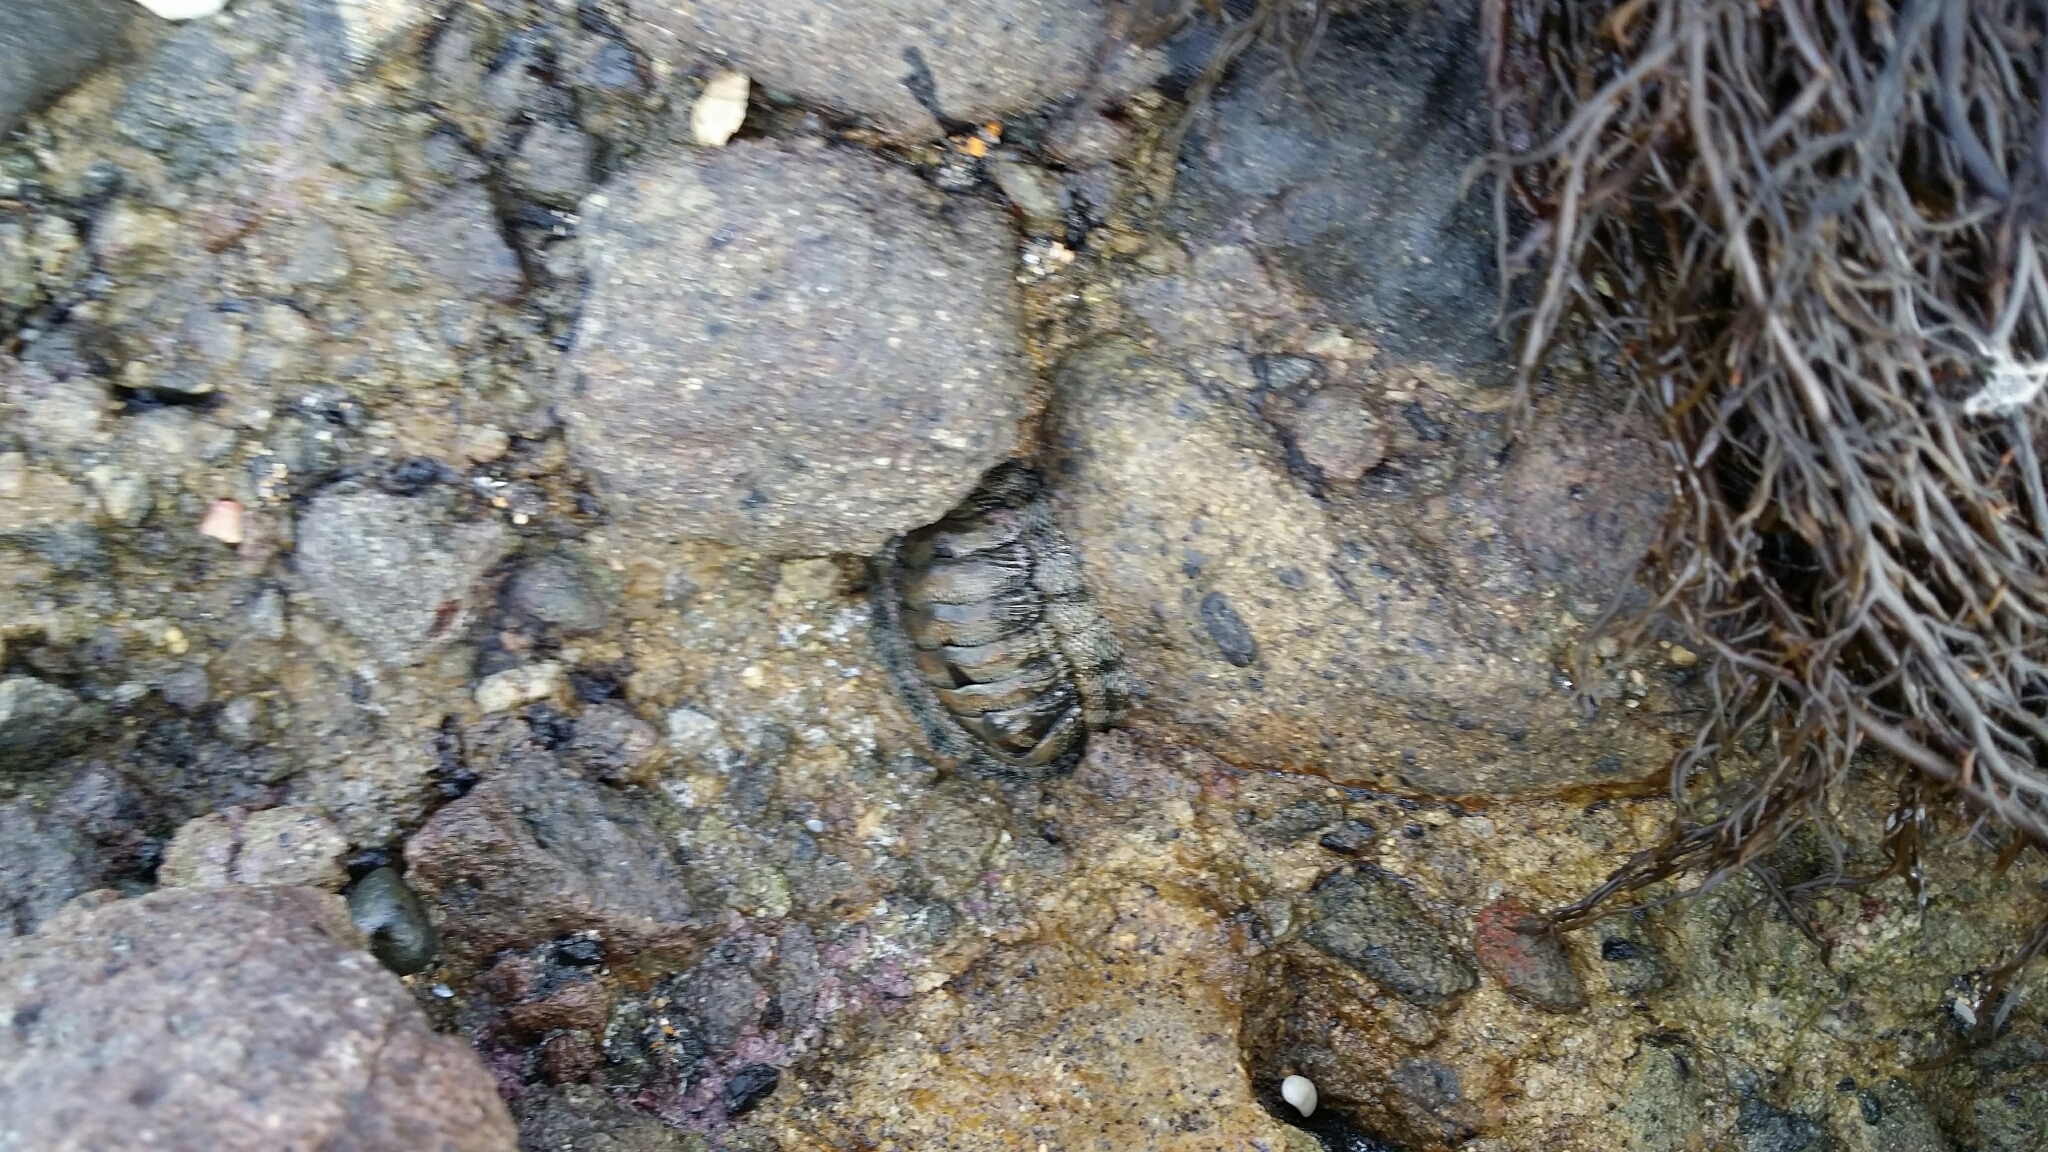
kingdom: Animalia
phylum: Mollusca
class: Polyplacophora
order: Chitonida
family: Chitonidae
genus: Sypharochiton
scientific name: Sypharochiton pelliserpentis
